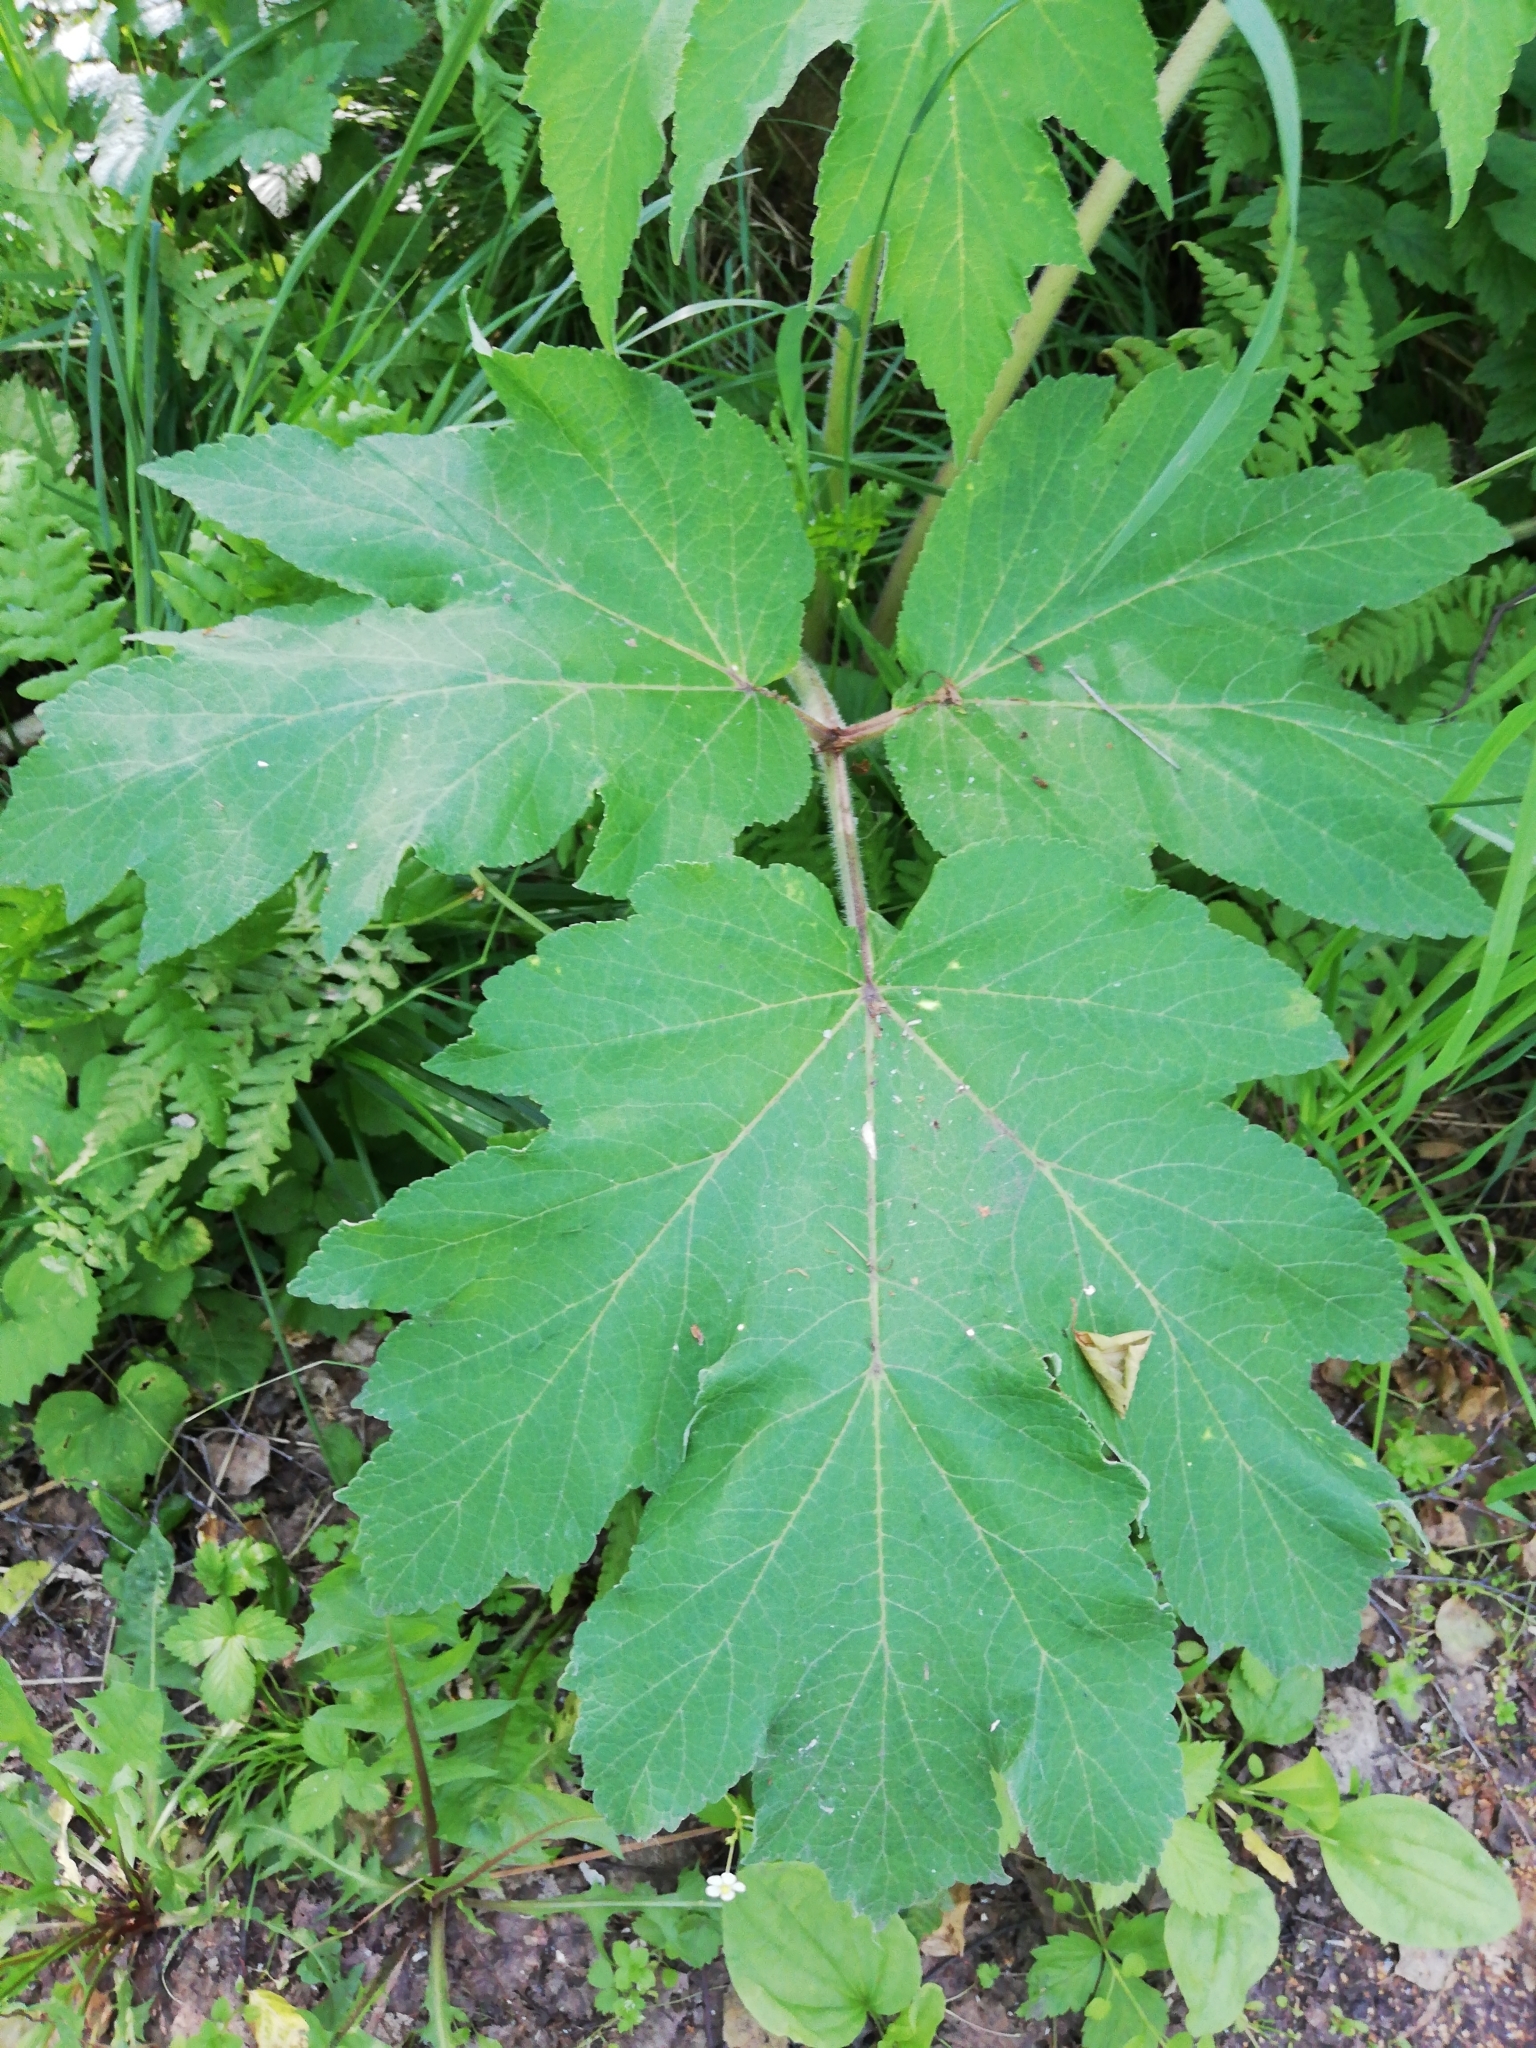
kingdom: Plantae
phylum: Tracheophyta
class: Magnoliopsida
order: Apiales
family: Apiaceae
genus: Heracleum
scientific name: Heracleum dissectum
